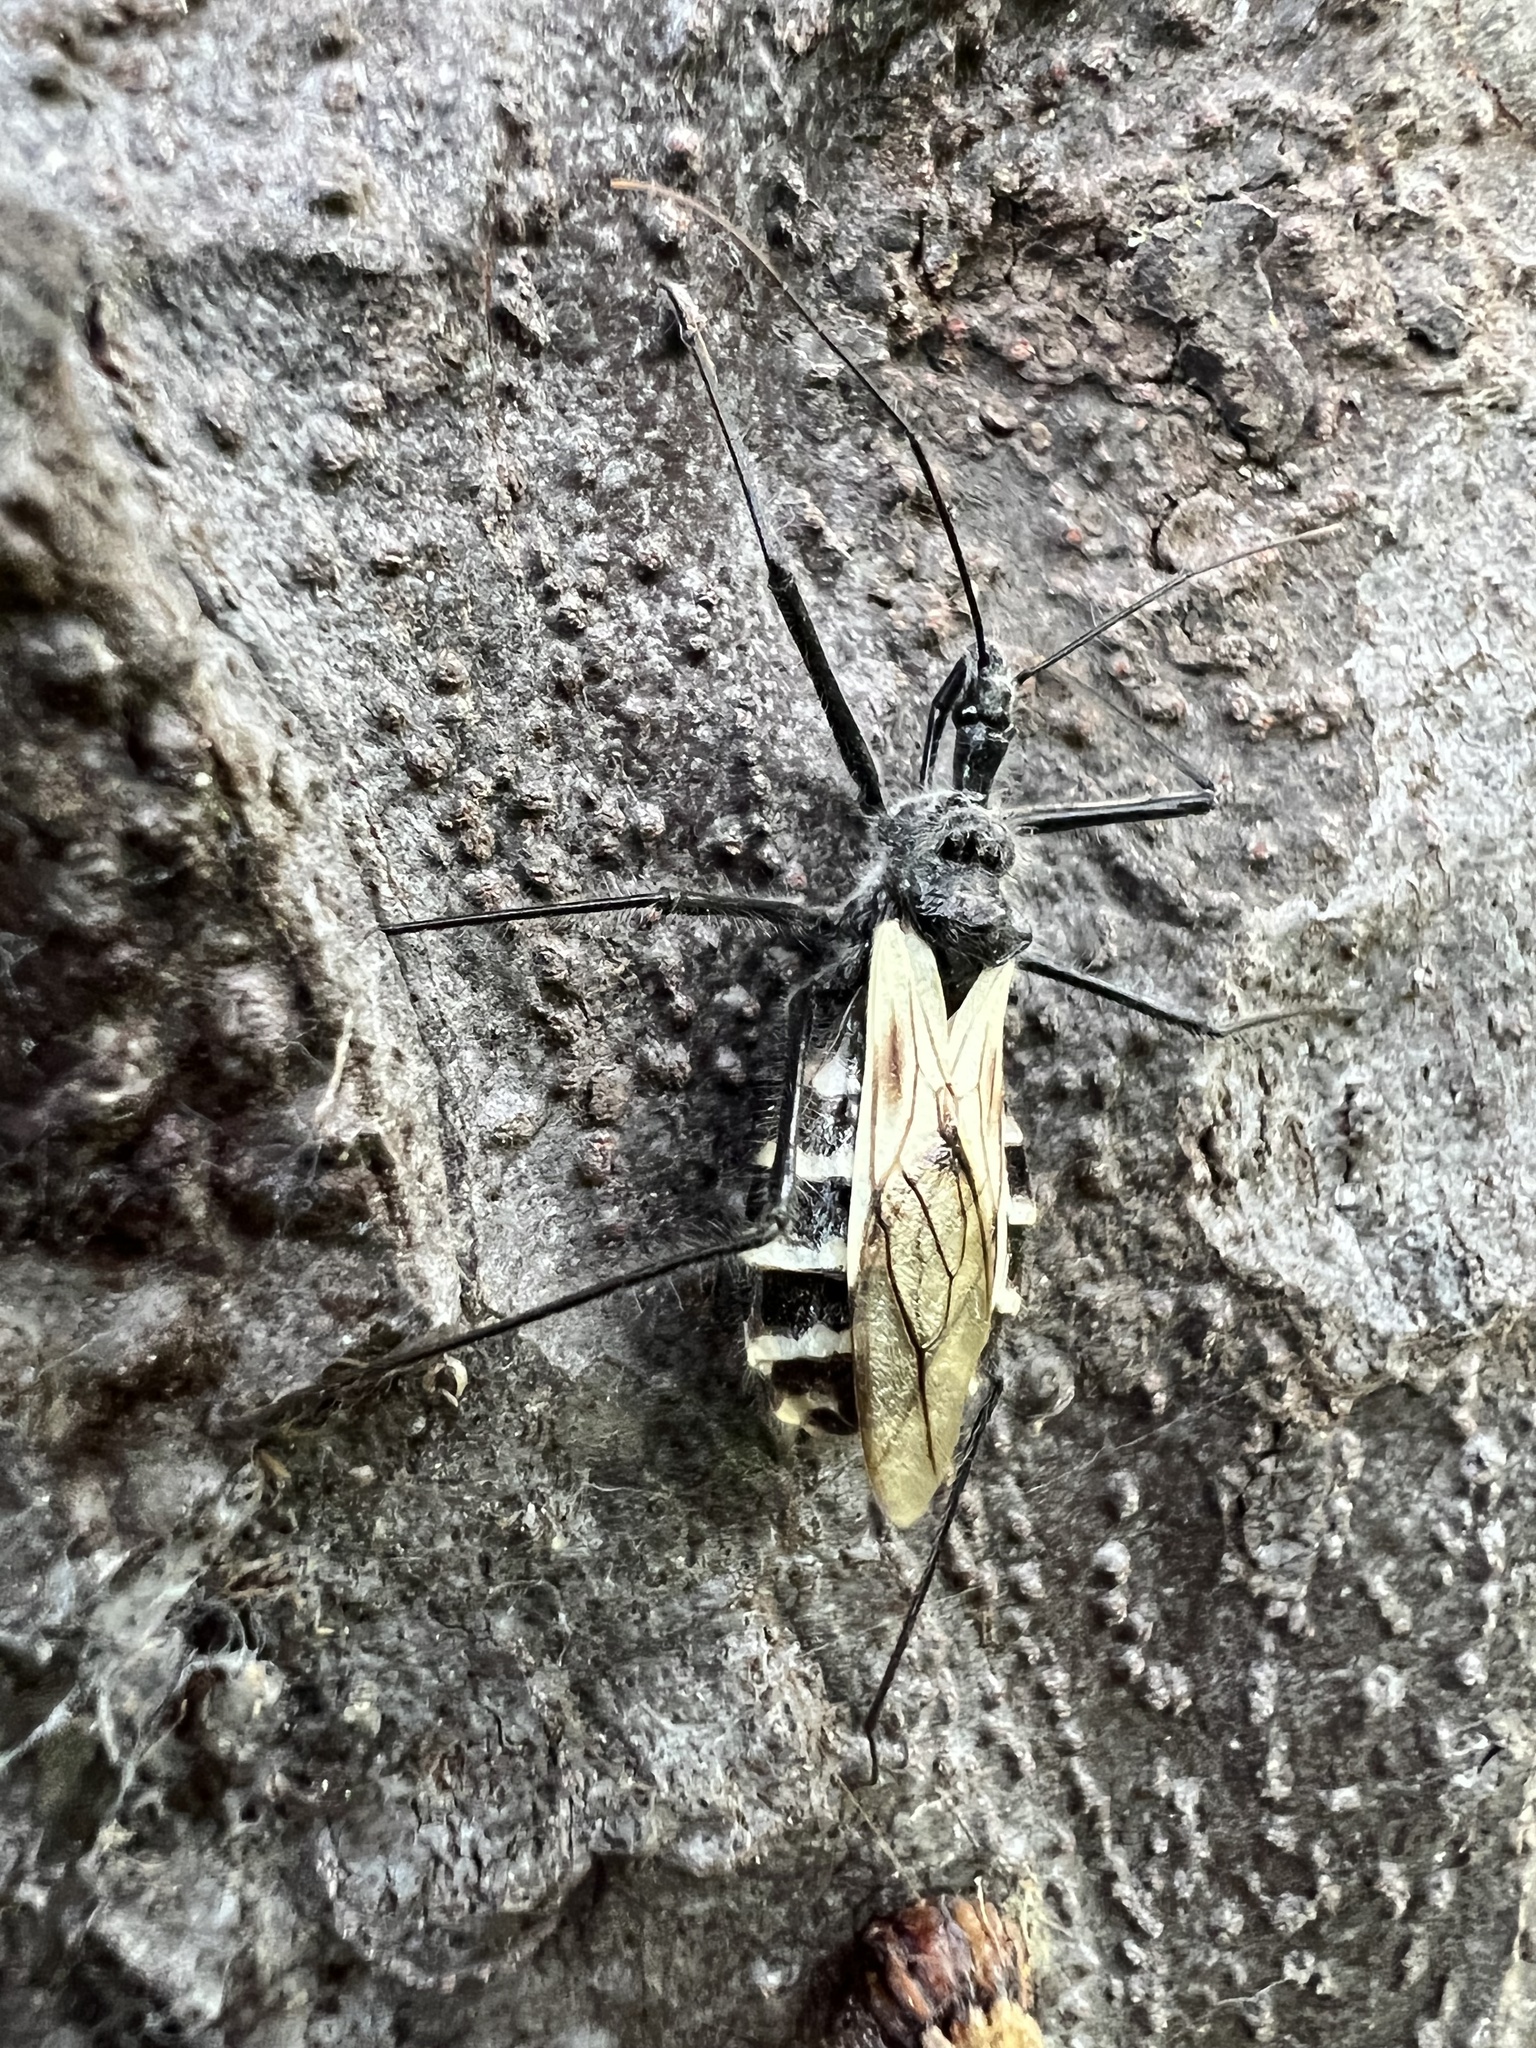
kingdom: Animalia
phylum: Arthropoda
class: Insecta
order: Hemiptera
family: Reduviidae
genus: Ambastus
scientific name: Ambastus villosus
